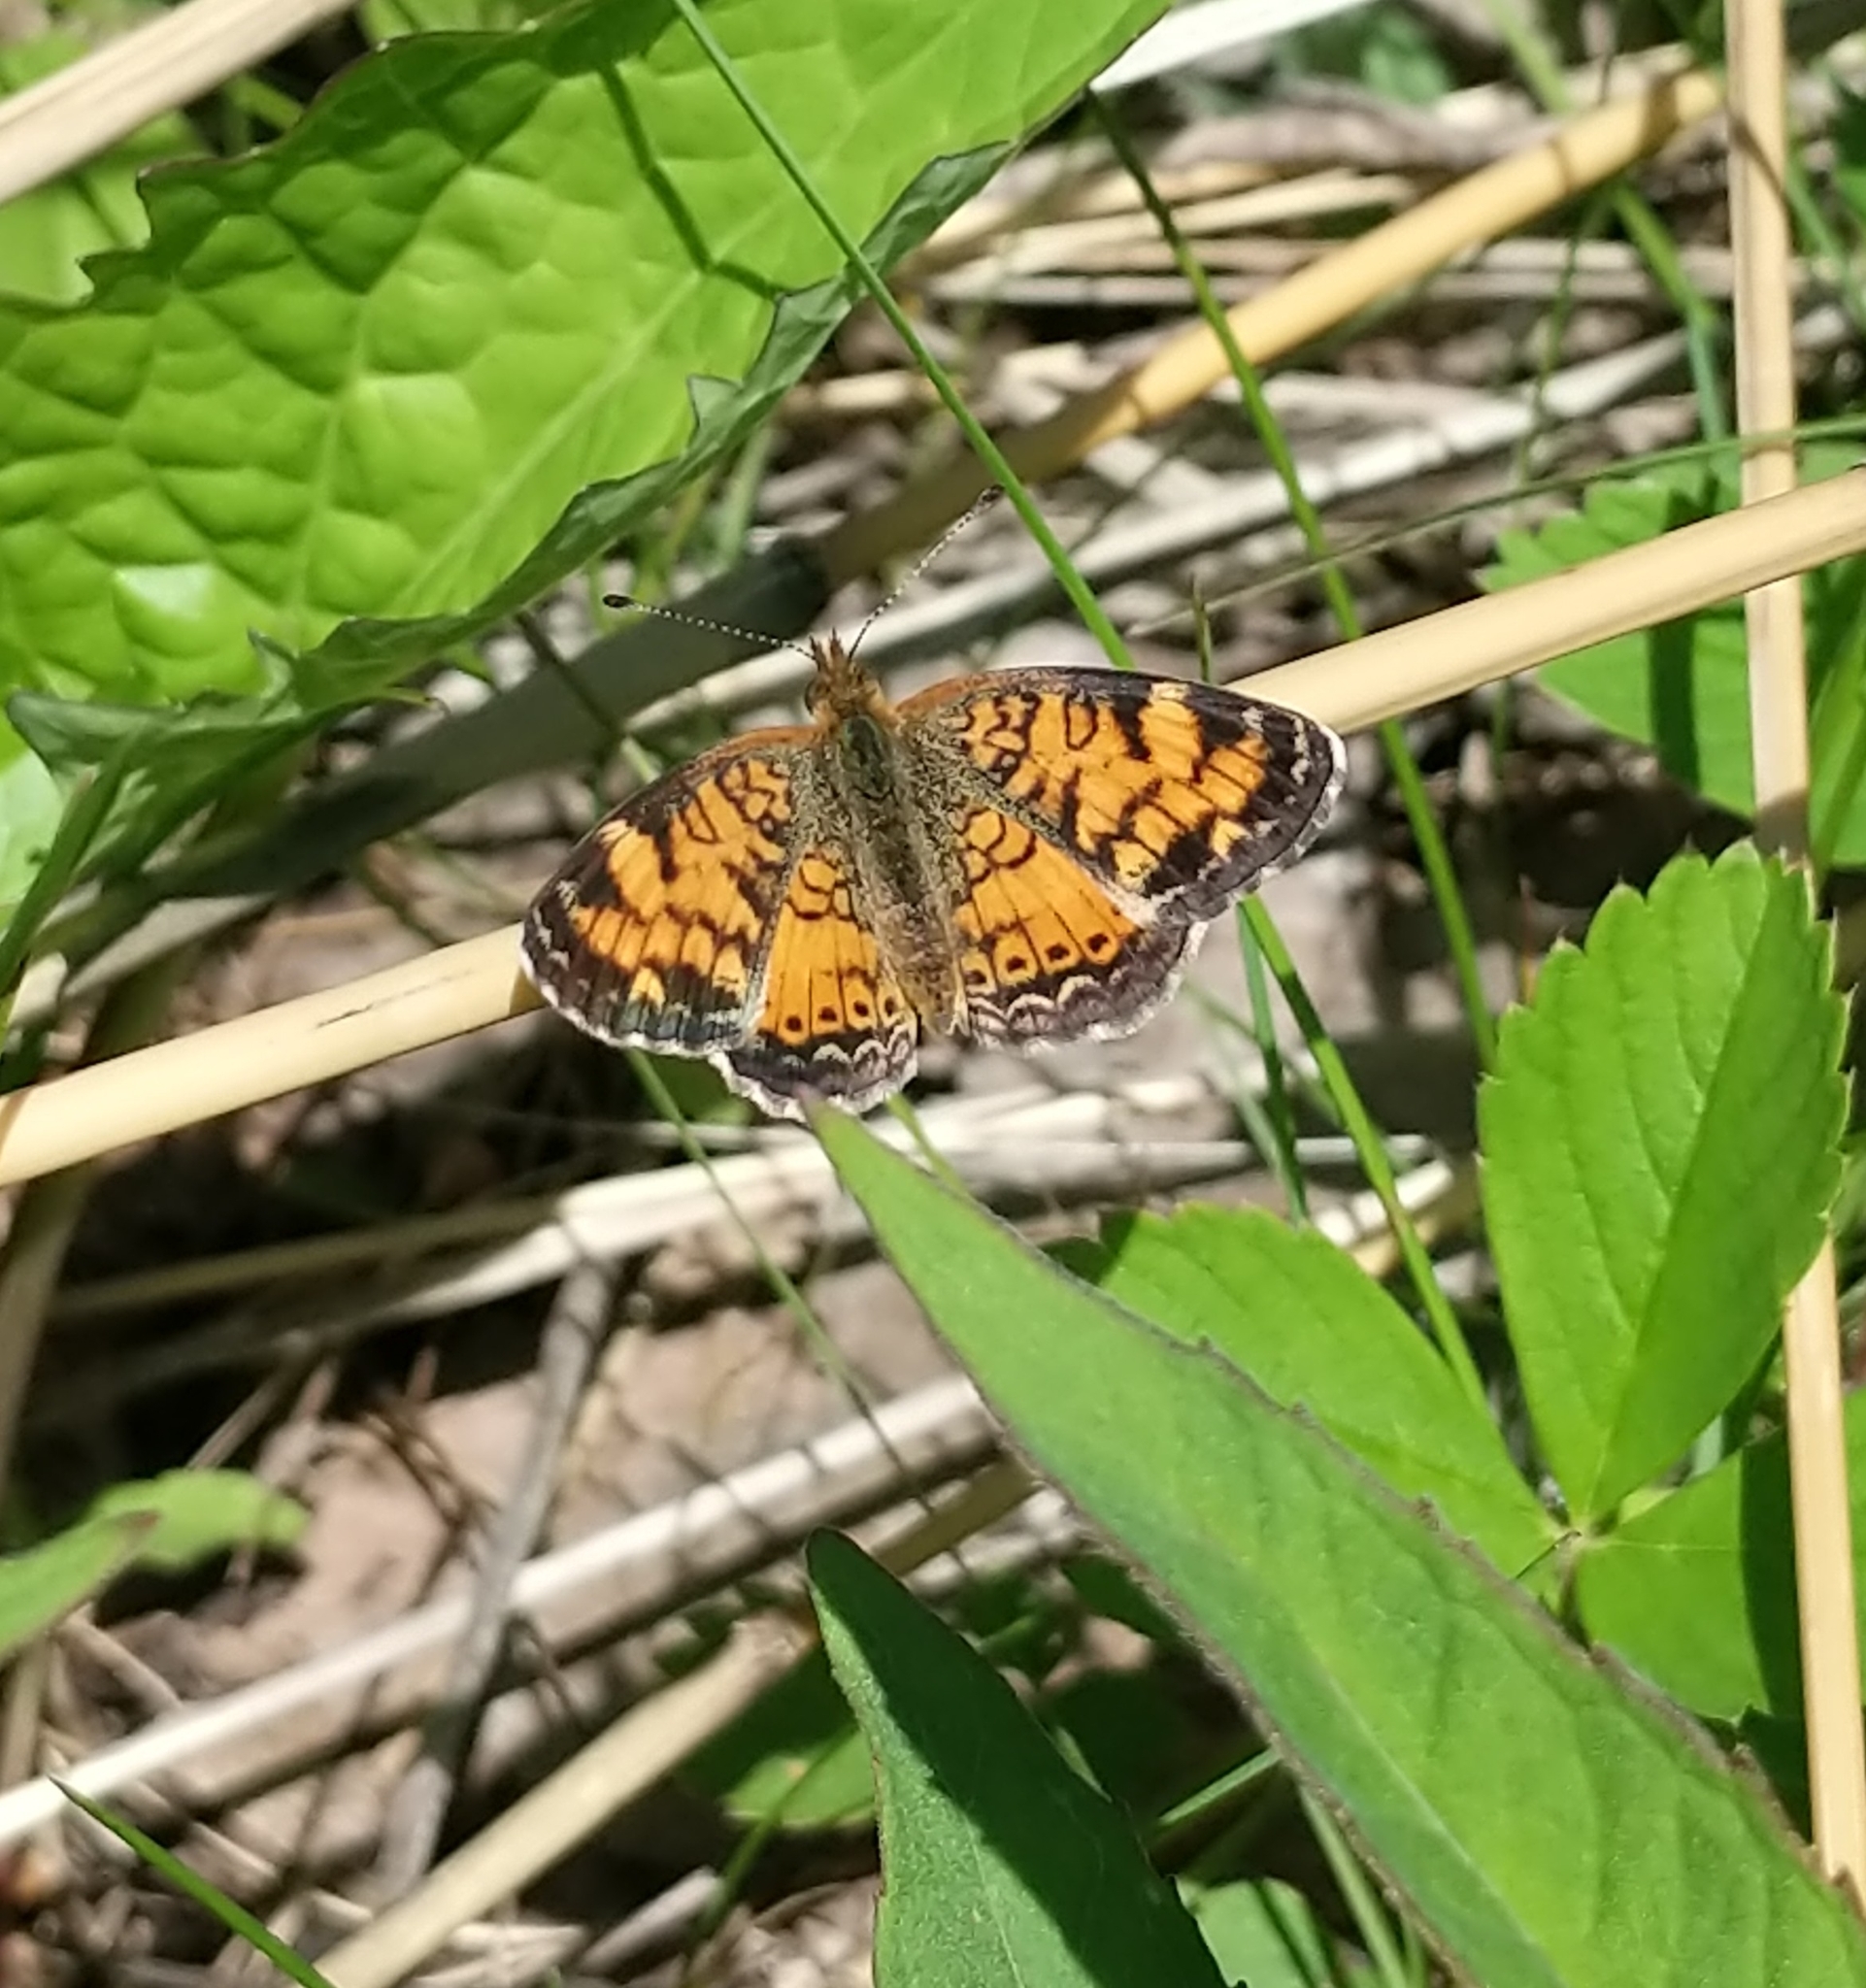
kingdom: Animalia
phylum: Arthropoda
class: Insecta
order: Lepidoptera
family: Nymphalidae
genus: Phyciodes
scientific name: Phyciodes tharos
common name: Pearl crescent
